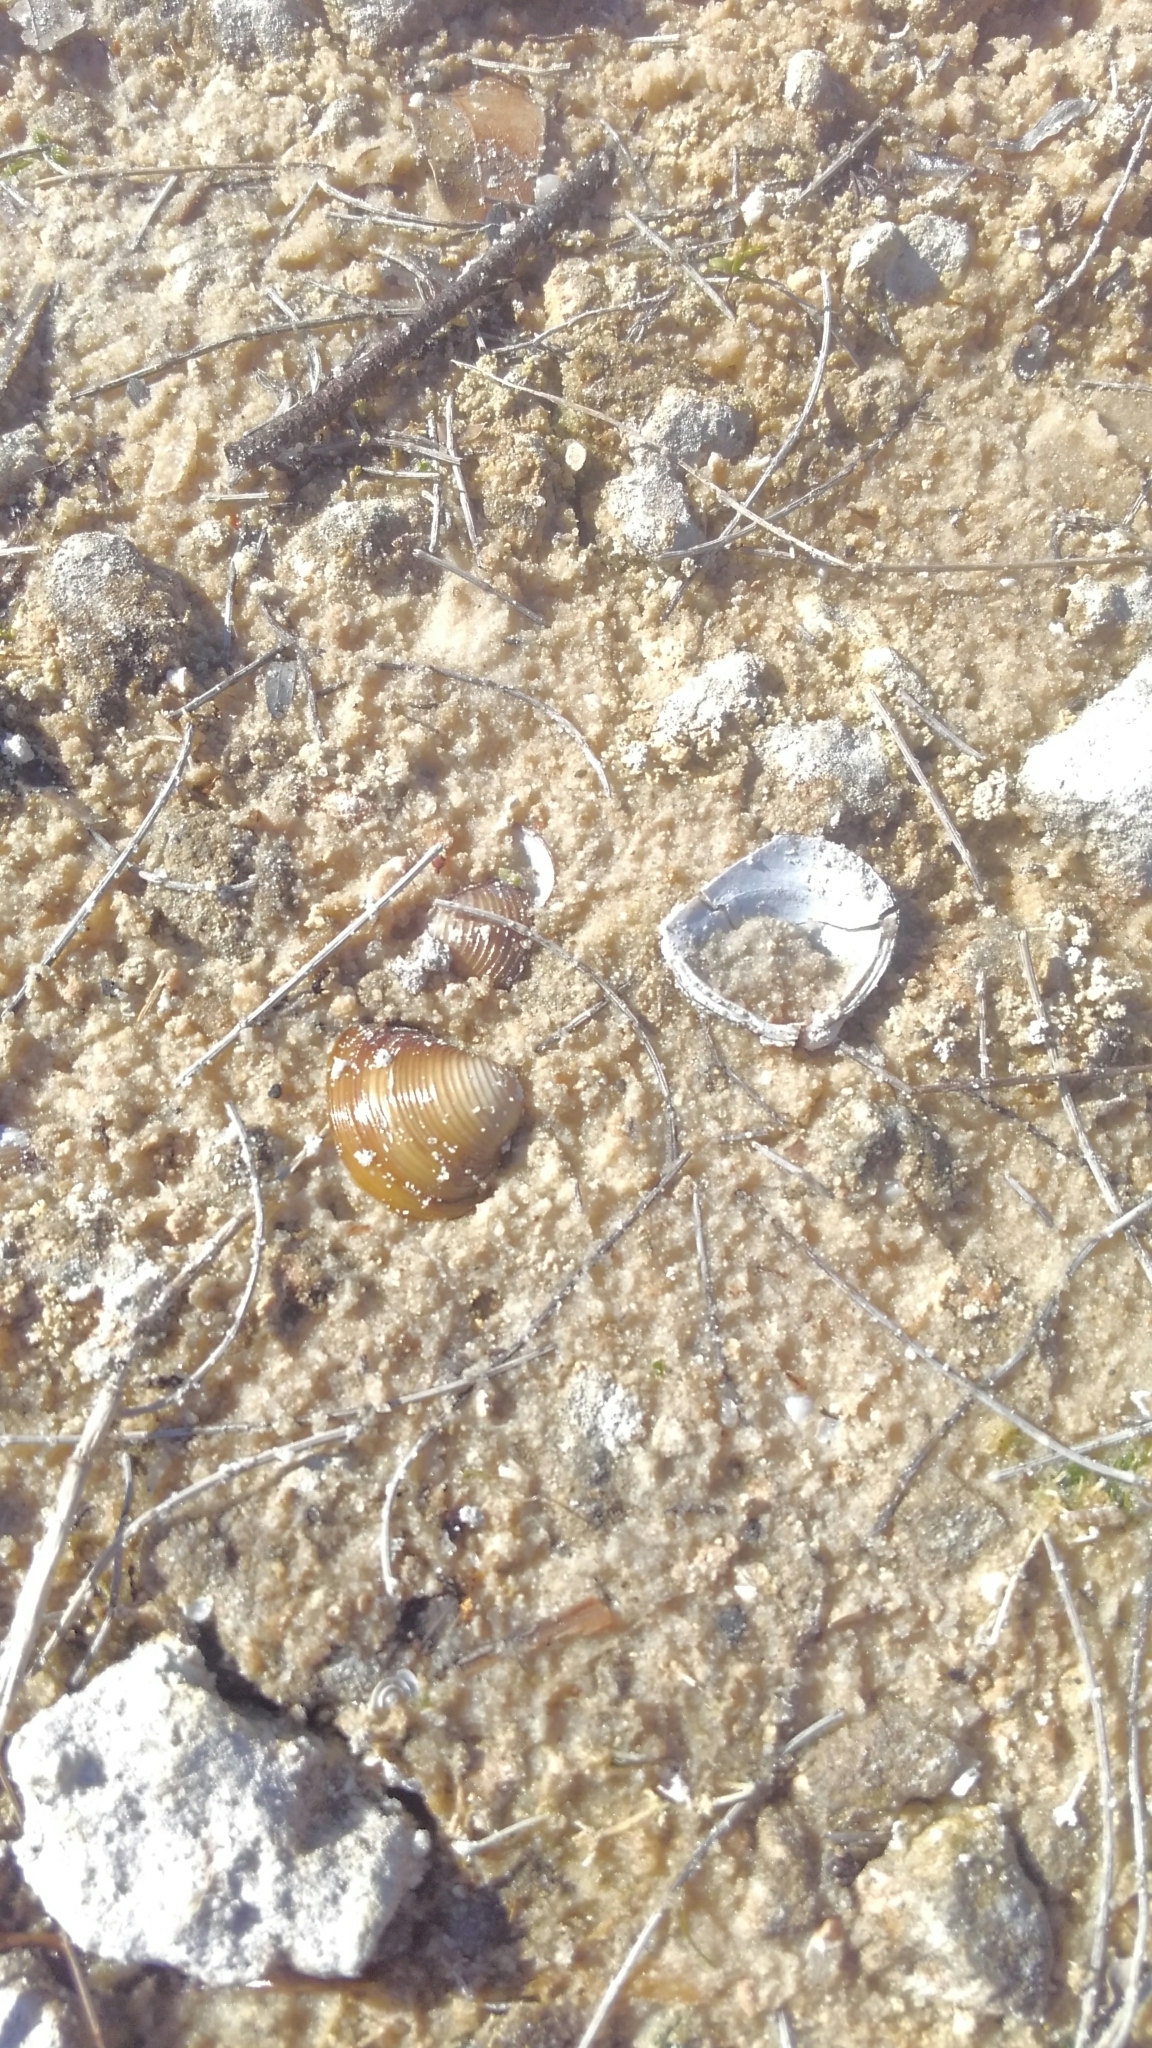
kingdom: Animalia
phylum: Mollusca
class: Bivalvia
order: Venerida
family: Cyrenidae
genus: Corbicula
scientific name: Corbicula fluminea
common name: Asian clam
